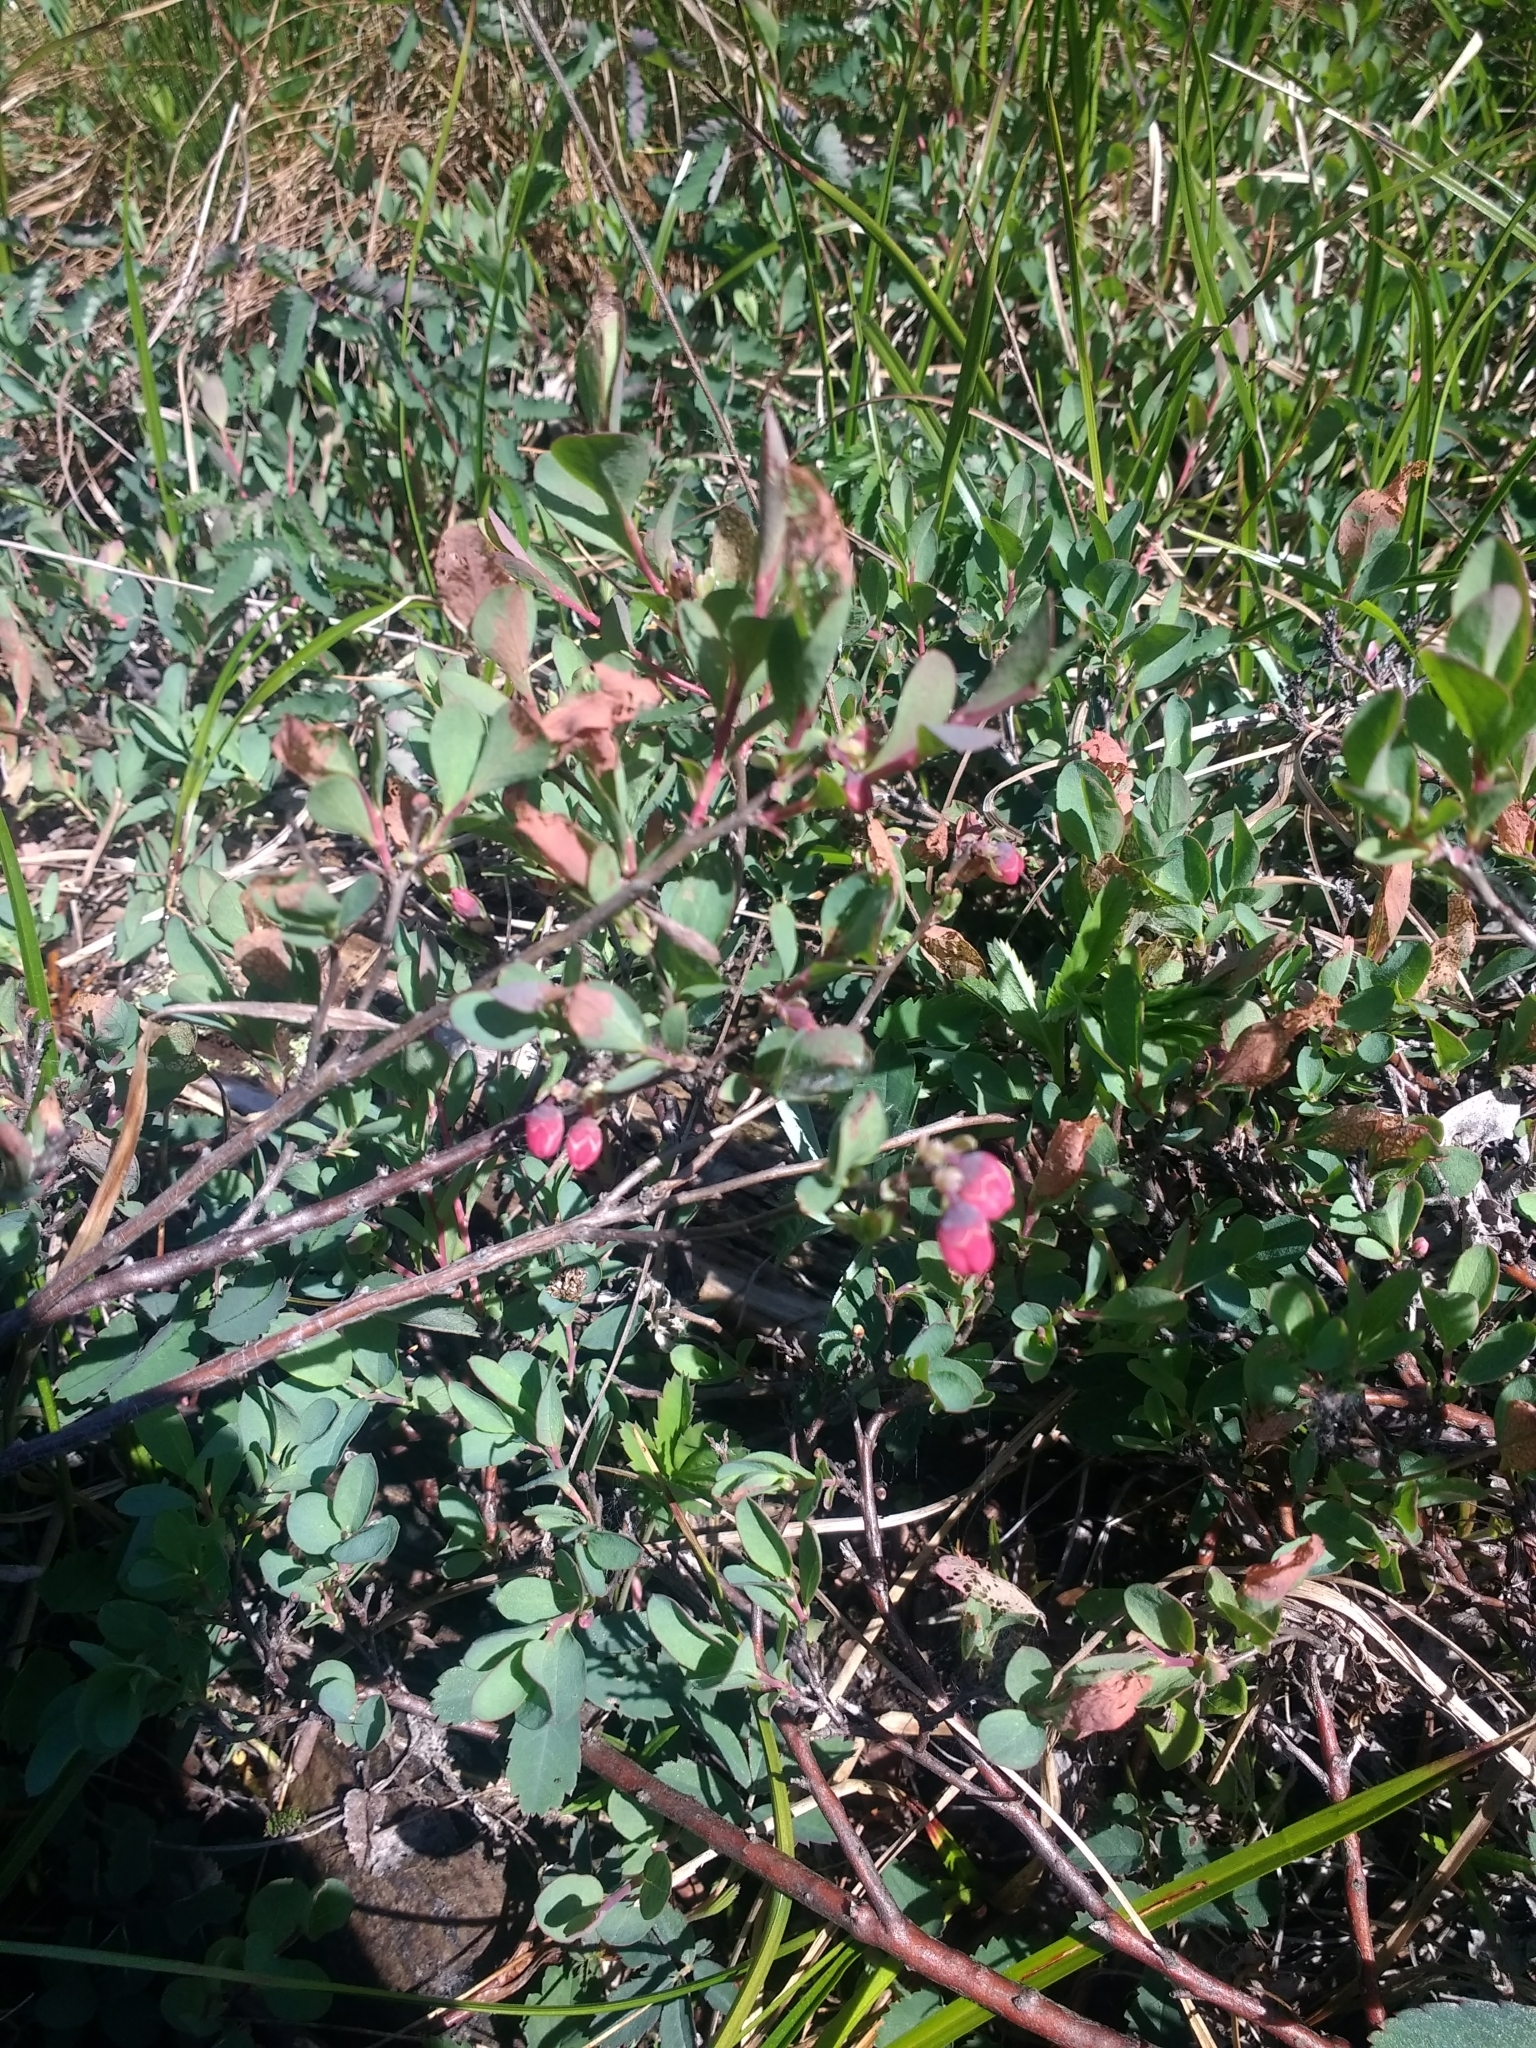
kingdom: Plantae
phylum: Tracheophyta
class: Magnoliopsida
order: Ericales
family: Ericaceae
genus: Vaccinium
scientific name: Vaccinium uliginosum
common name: Bog bilberry
